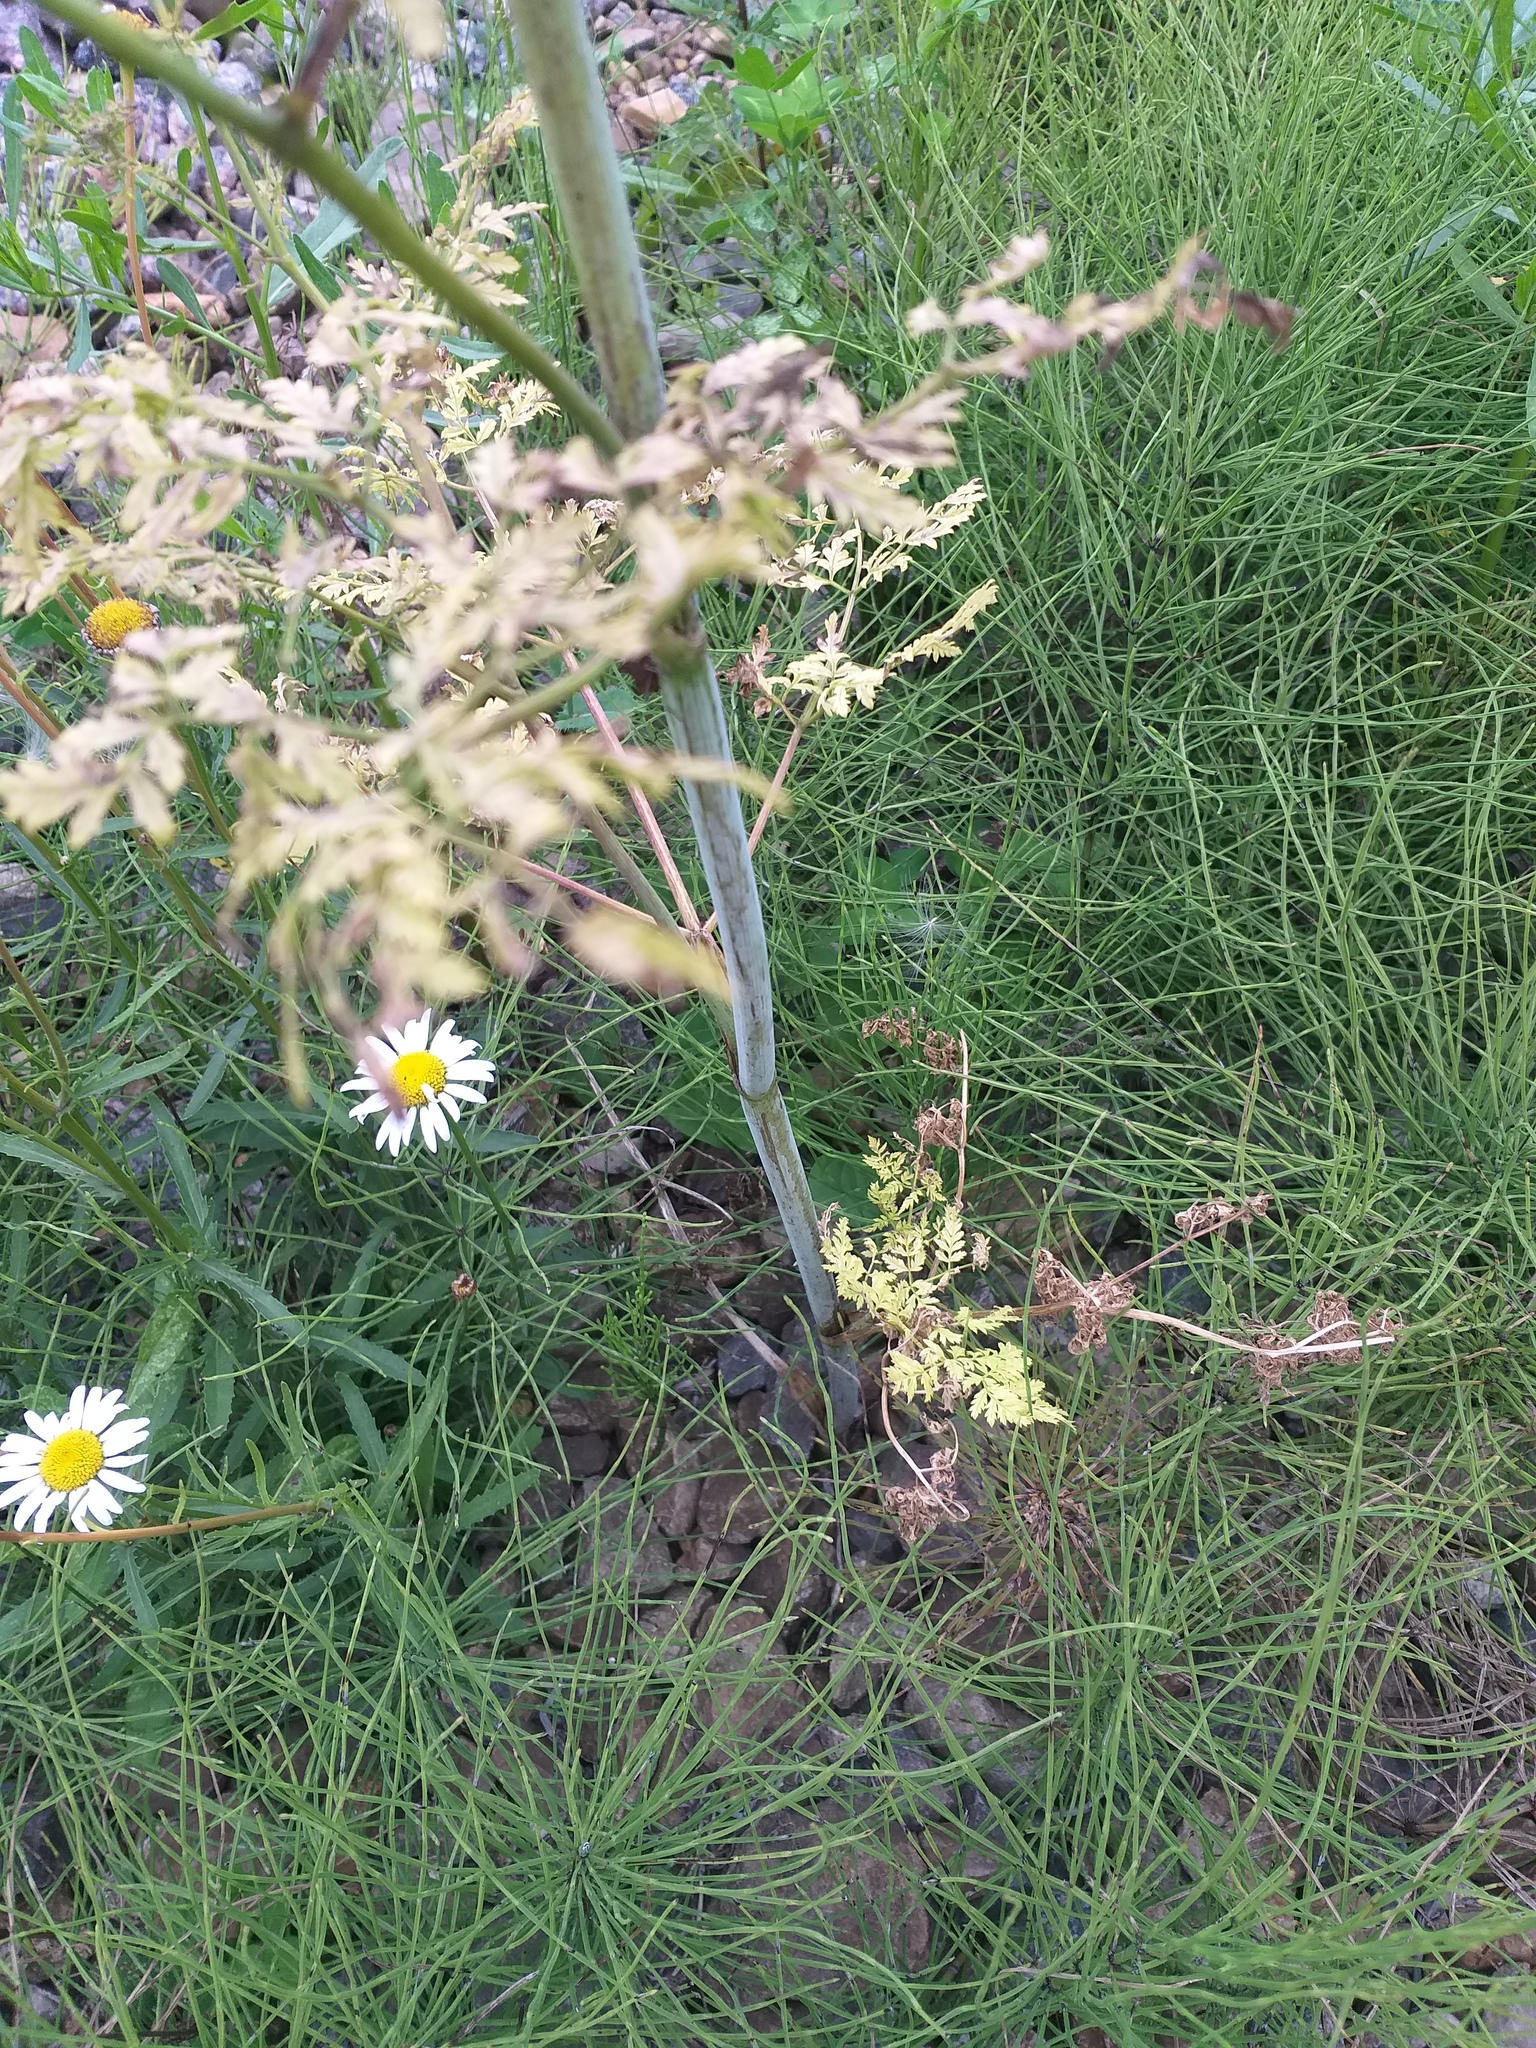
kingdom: Plantae
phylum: Tracheophyta
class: Magnoliopsida
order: Apiales
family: Apiaceae
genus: Conium
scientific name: Conium maculatum
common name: Hemlock
